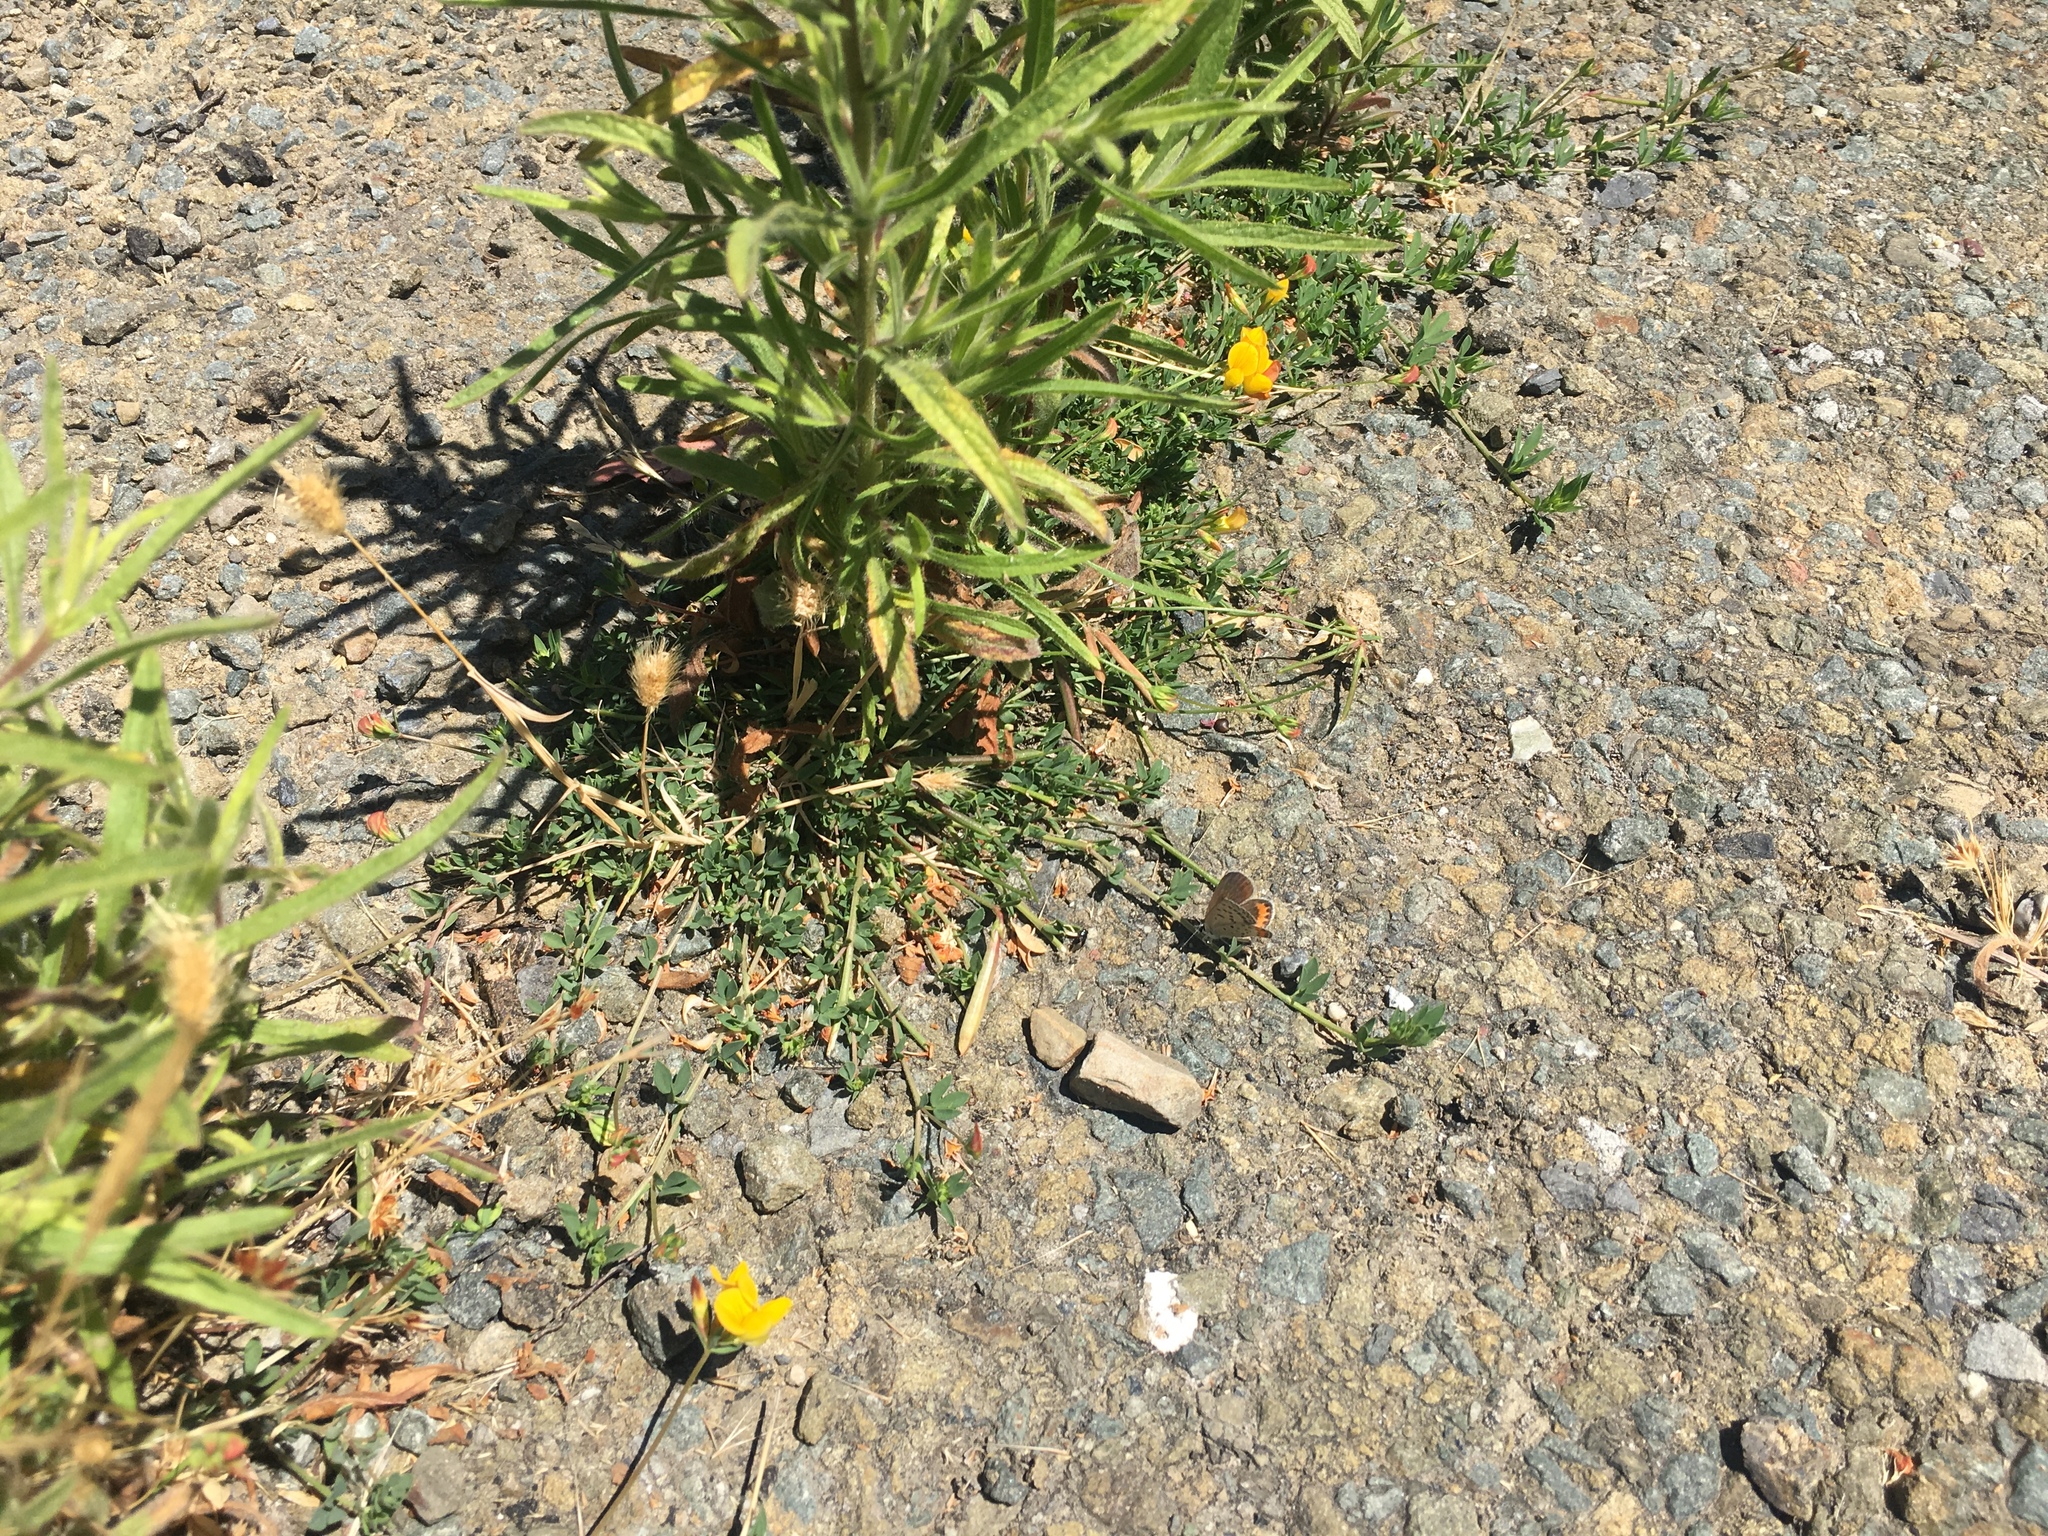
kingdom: Animalia
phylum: Arthropoda
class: Insecta
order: Lepidoptera
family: Lycaenidae
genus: Icaricia
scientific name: Icaricia acmon
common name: Acmon blue
